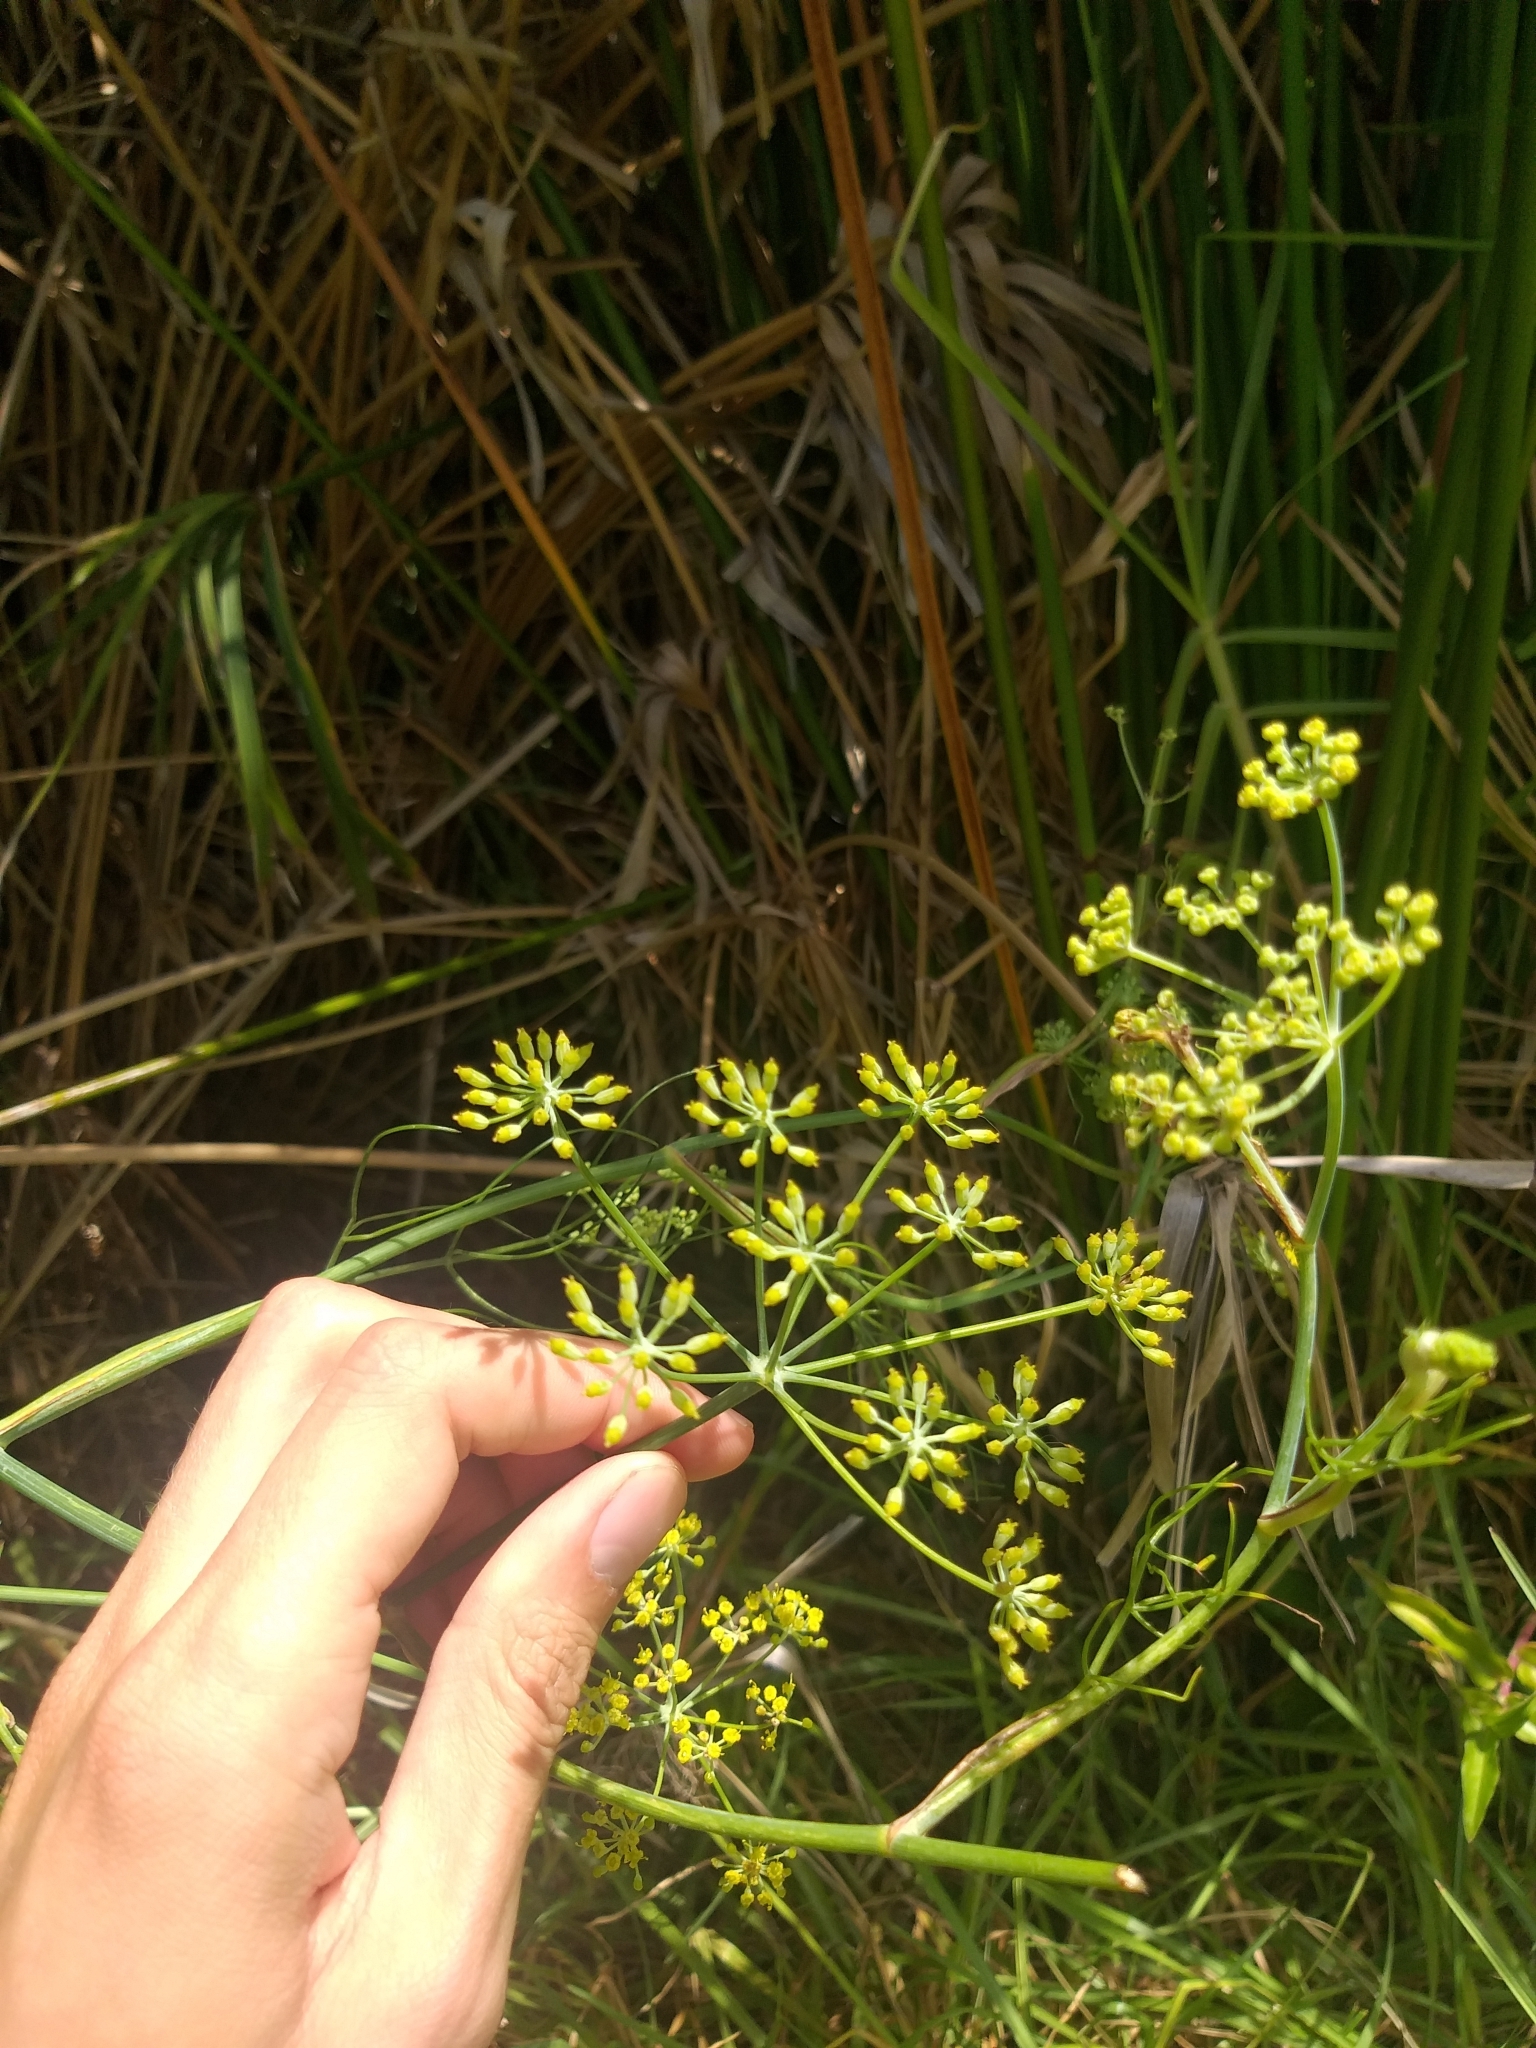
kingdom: Plantae
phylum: Tracheophyta
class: Magnoliopsida
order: Apiales
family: Apiaceae
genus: Foeniculum
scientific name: Foeniculum vulgare
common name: Fennel
